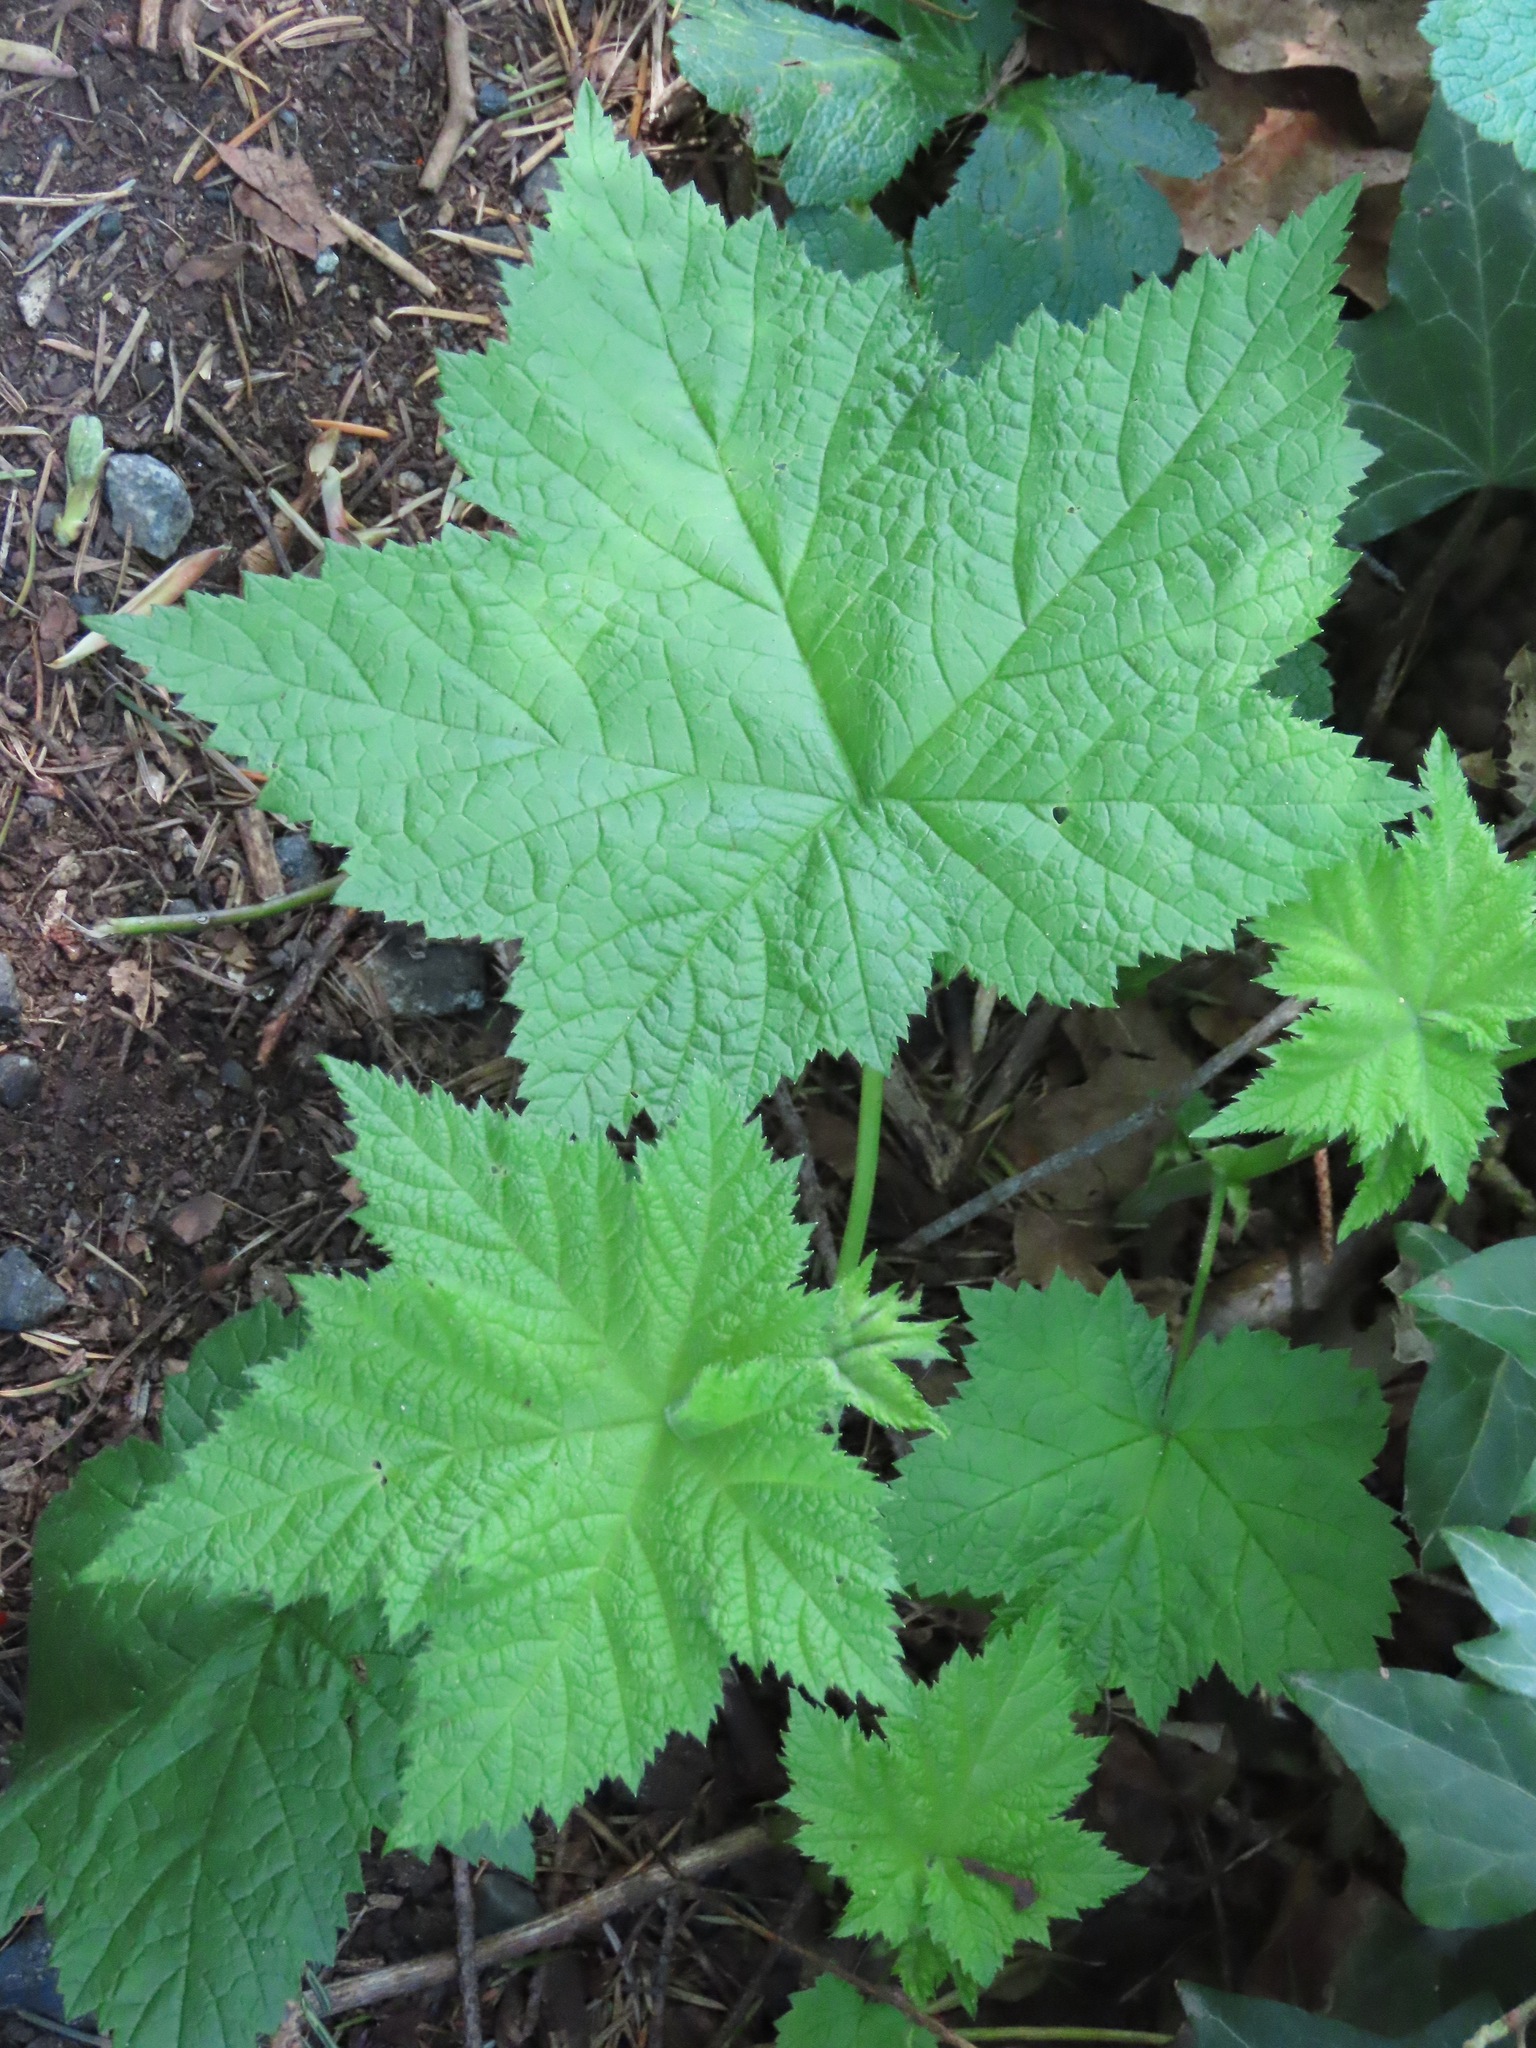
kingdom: Plantae
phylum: Tracheophyta
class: Magnoliopsida
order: Rosales
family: Rosaceae
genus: Rubus
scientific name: Rubus parviflorus
